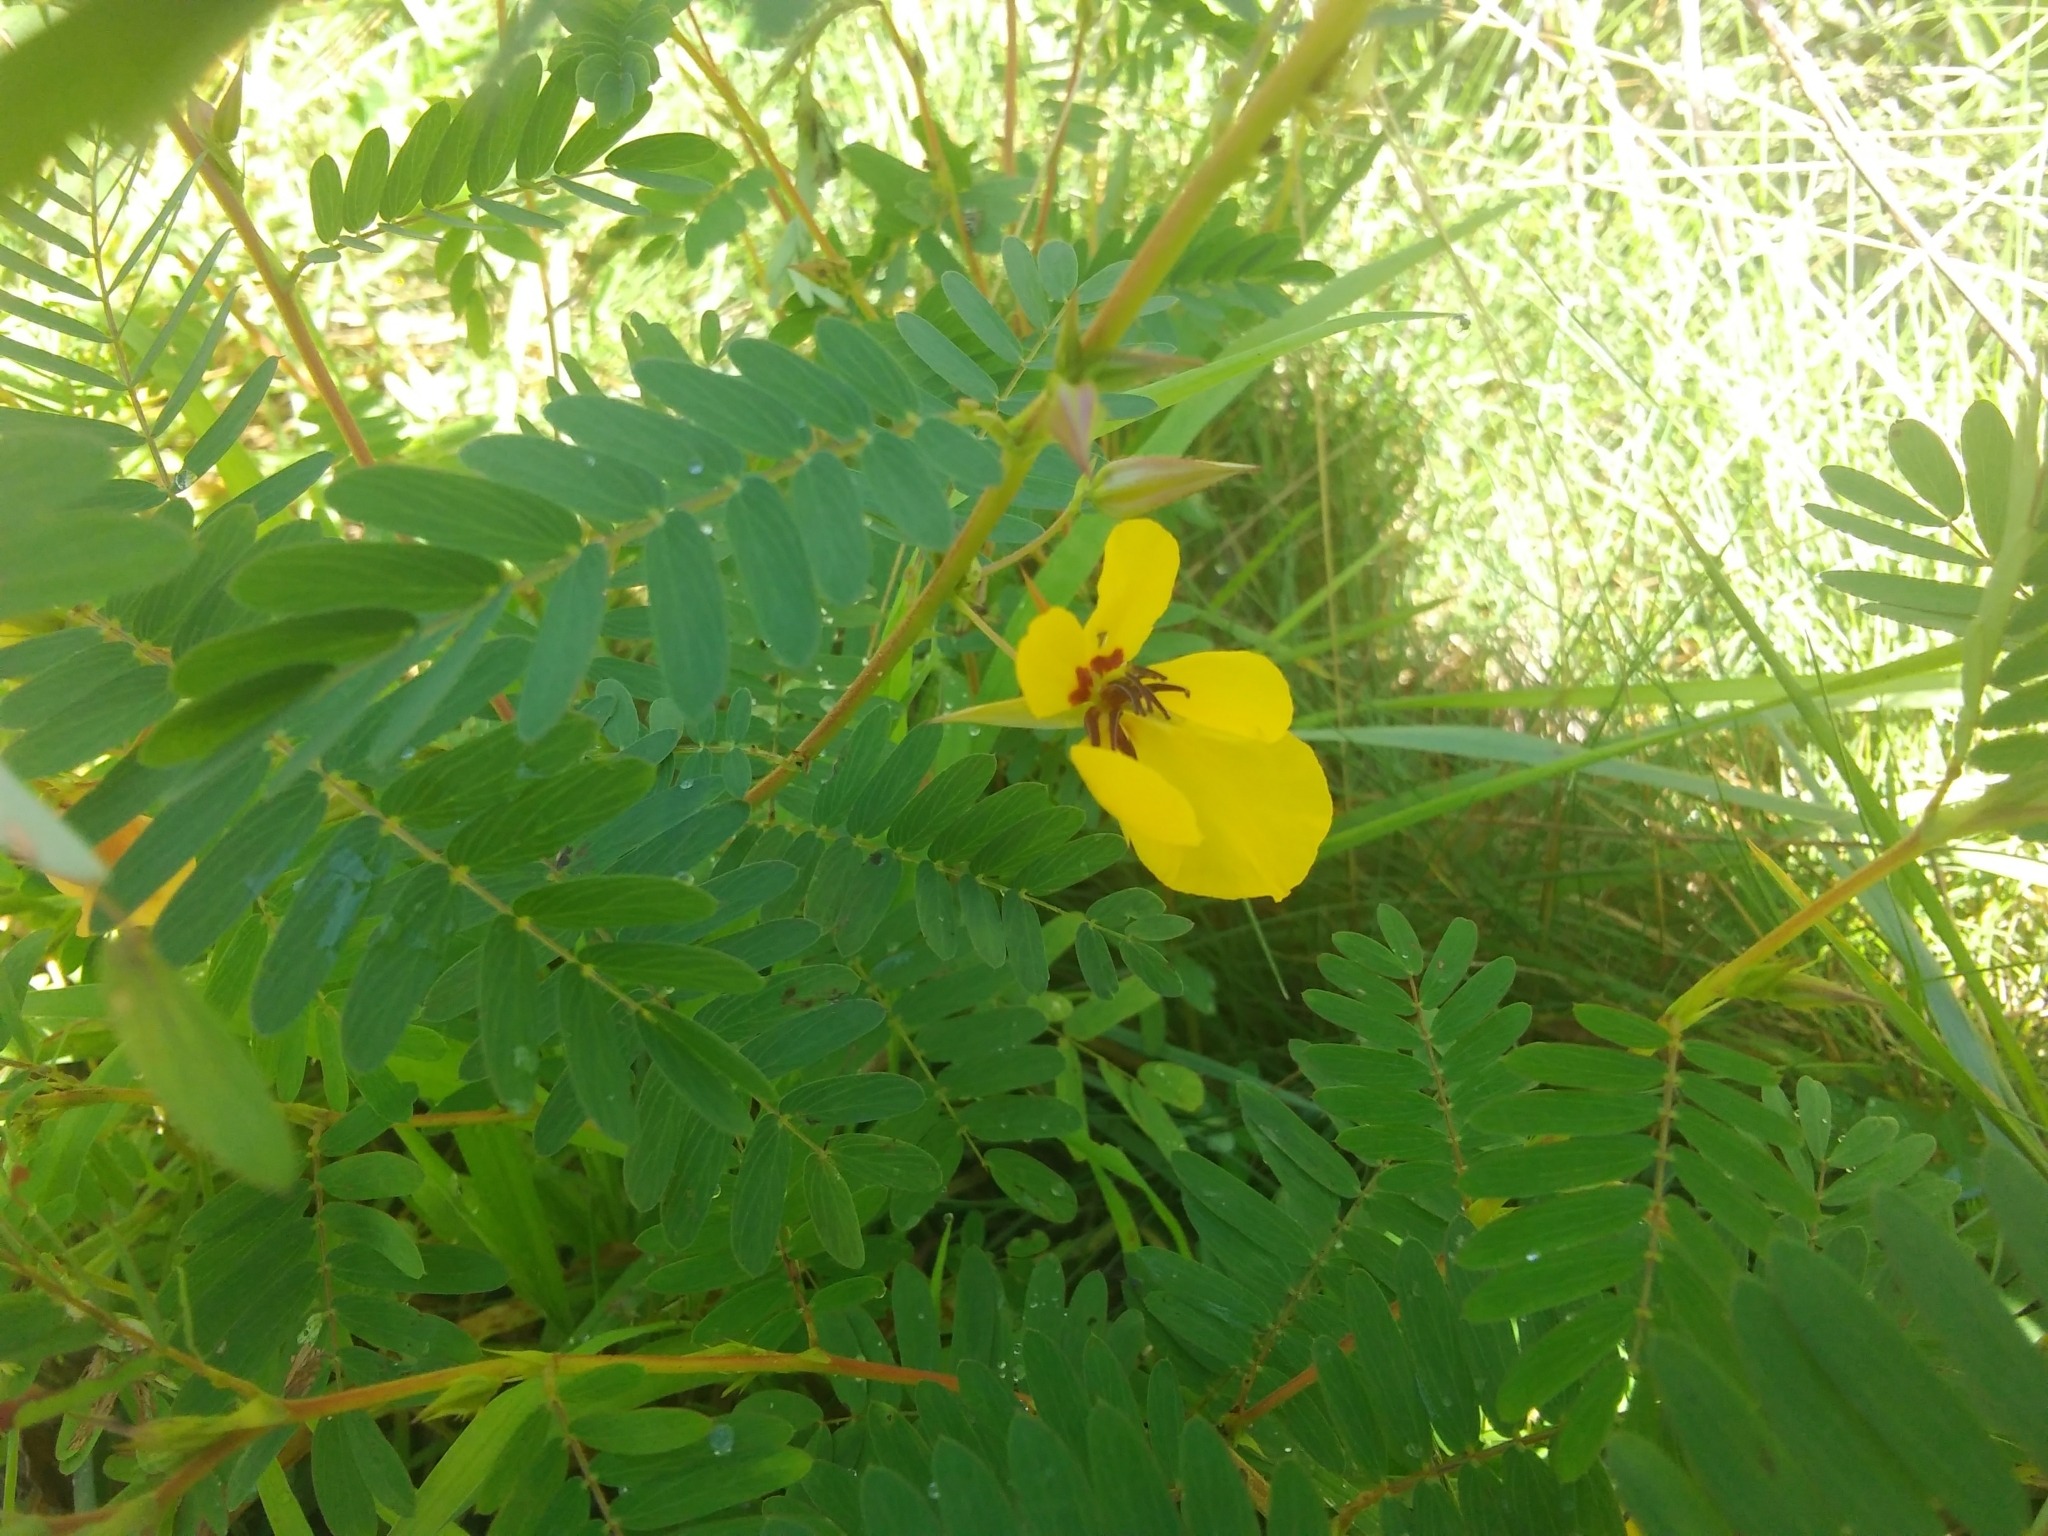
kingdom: Plantae
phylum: Tracheophyta
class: Magnoliopsida
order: Fabales
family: Fabaceae
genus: Chamaecrista
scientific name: Chamaecrista fasciculata
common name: Golden cassia
